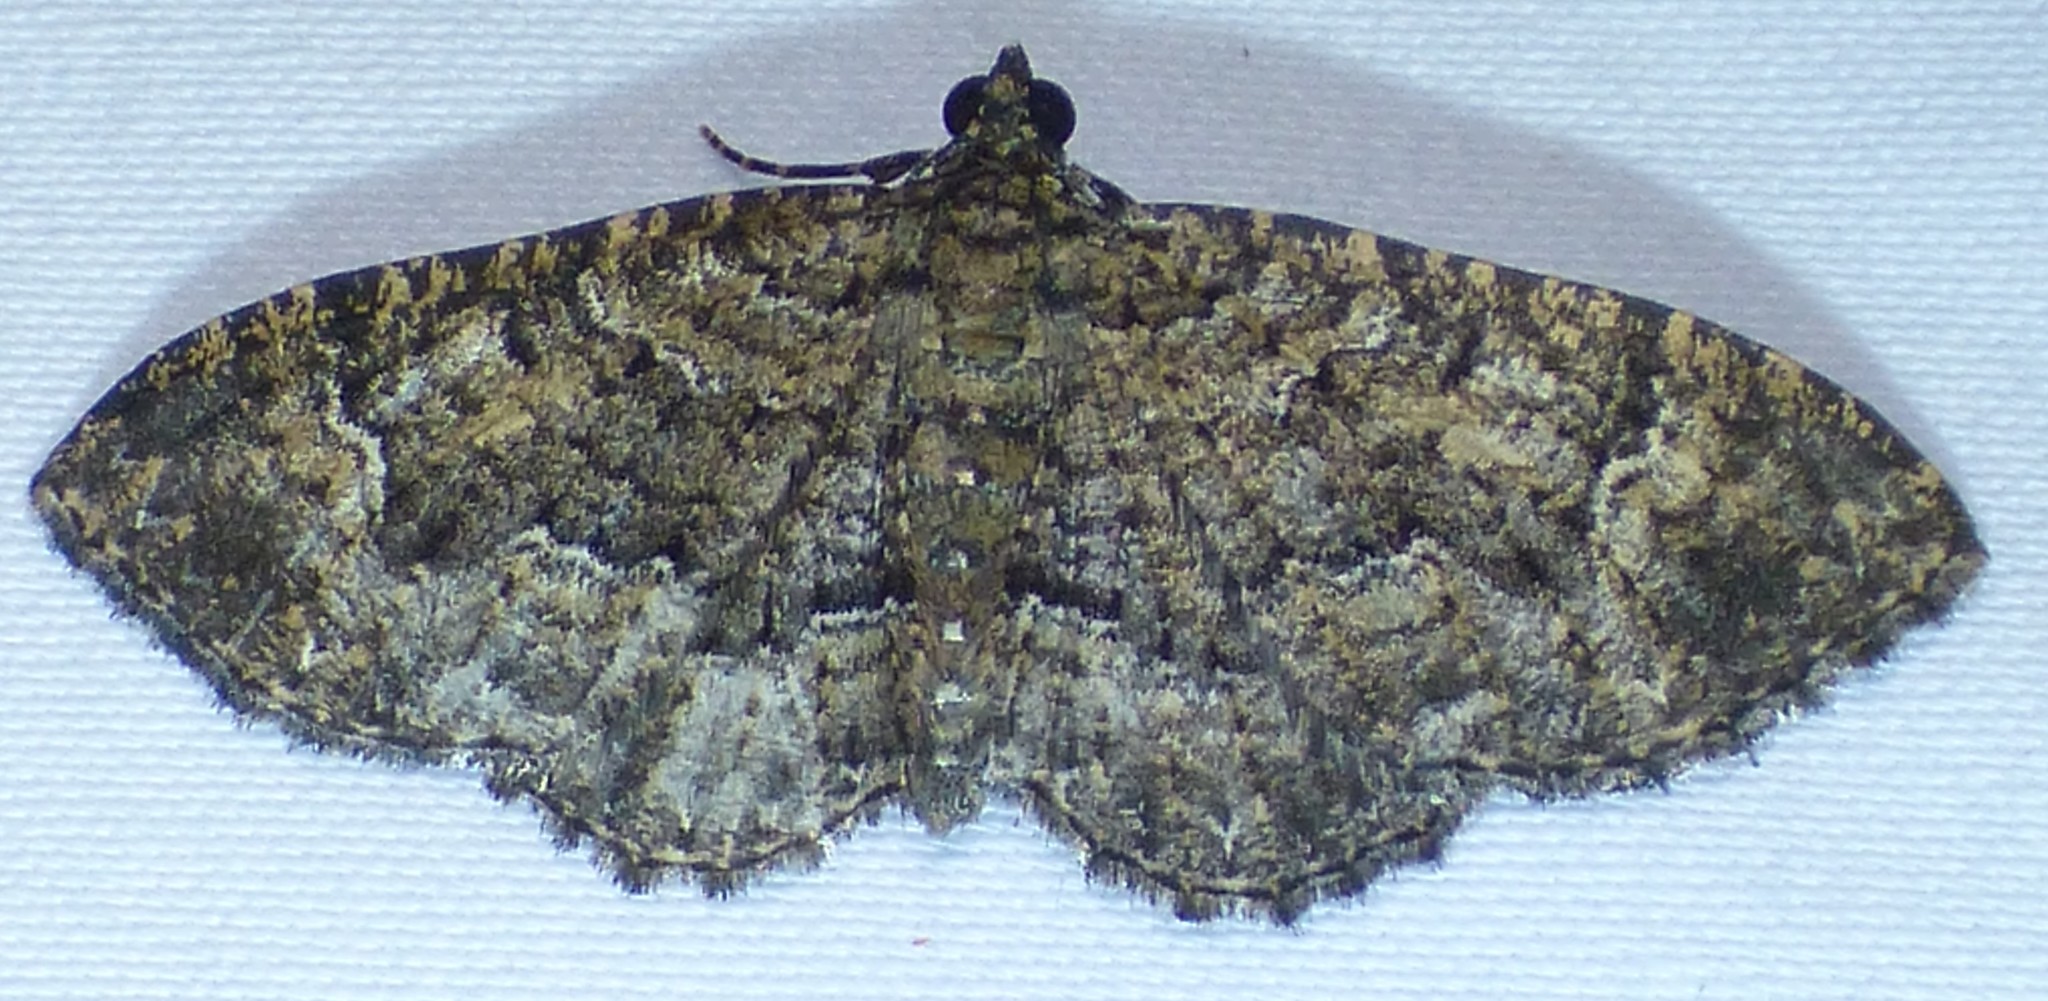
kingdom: Animalia
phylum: Arthropoda
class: Insecta
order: Lepidoptera
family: Geometridae
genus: Disclisioprocta
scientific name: Disclisioprocta stellata
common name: Somber carpet
